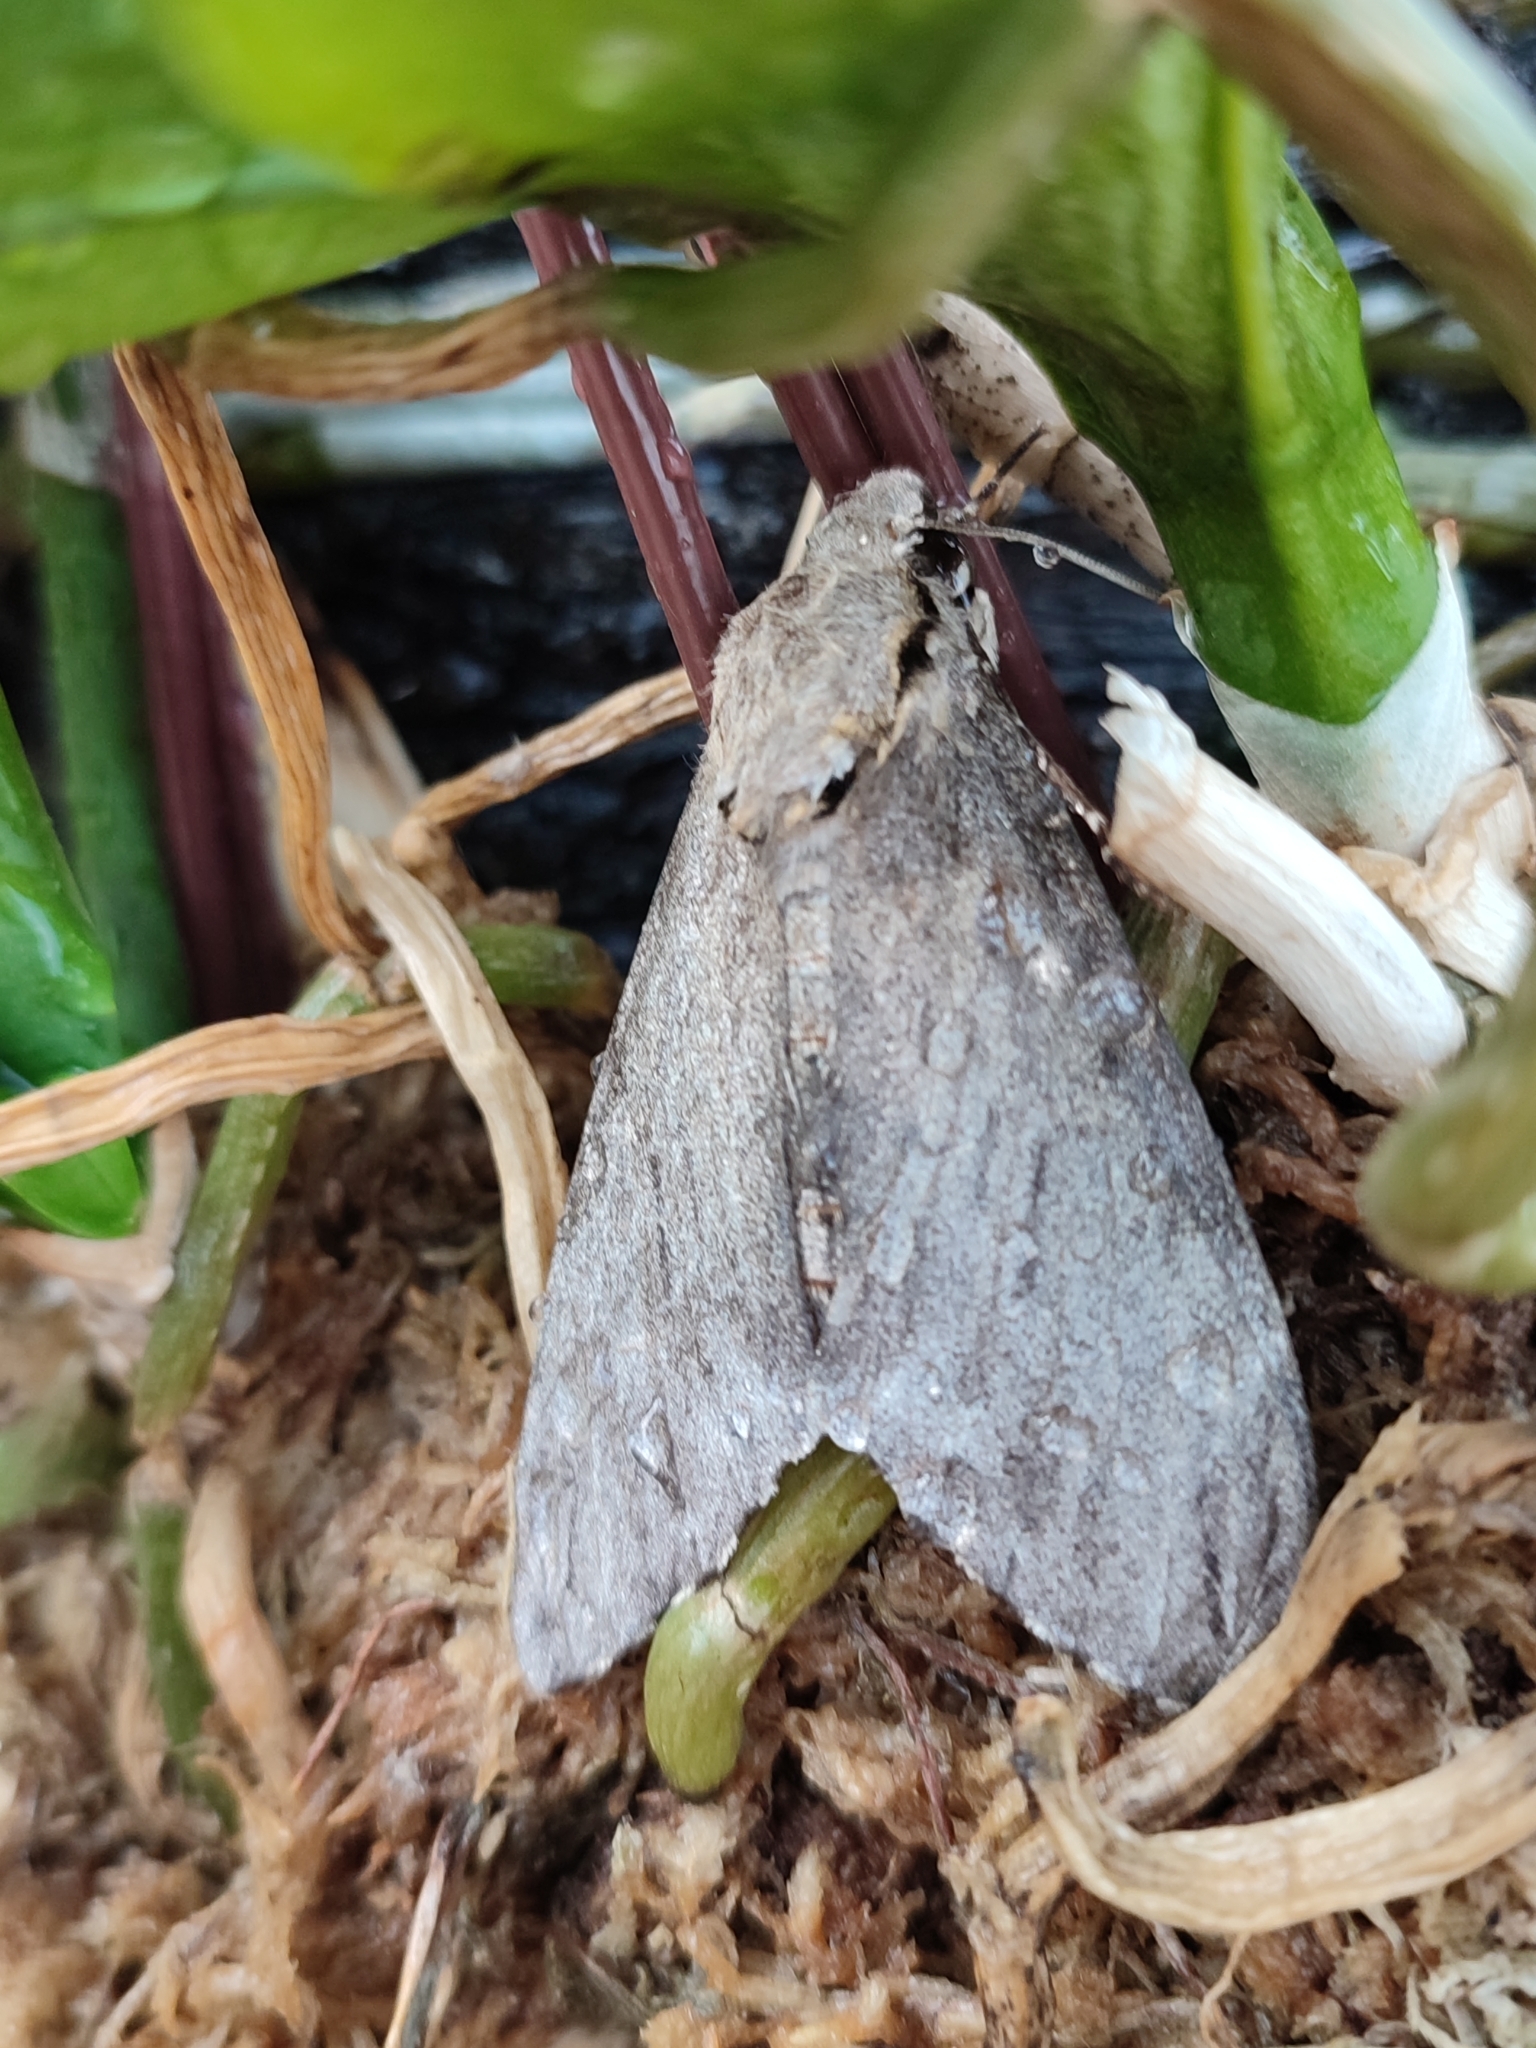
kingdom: Animalia
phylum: Arthropoda
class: Insecta
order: Lepidoptera
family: Sphingidae
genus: Psilogramma
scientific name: Psilogramma increta
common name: Gray hawk moth
